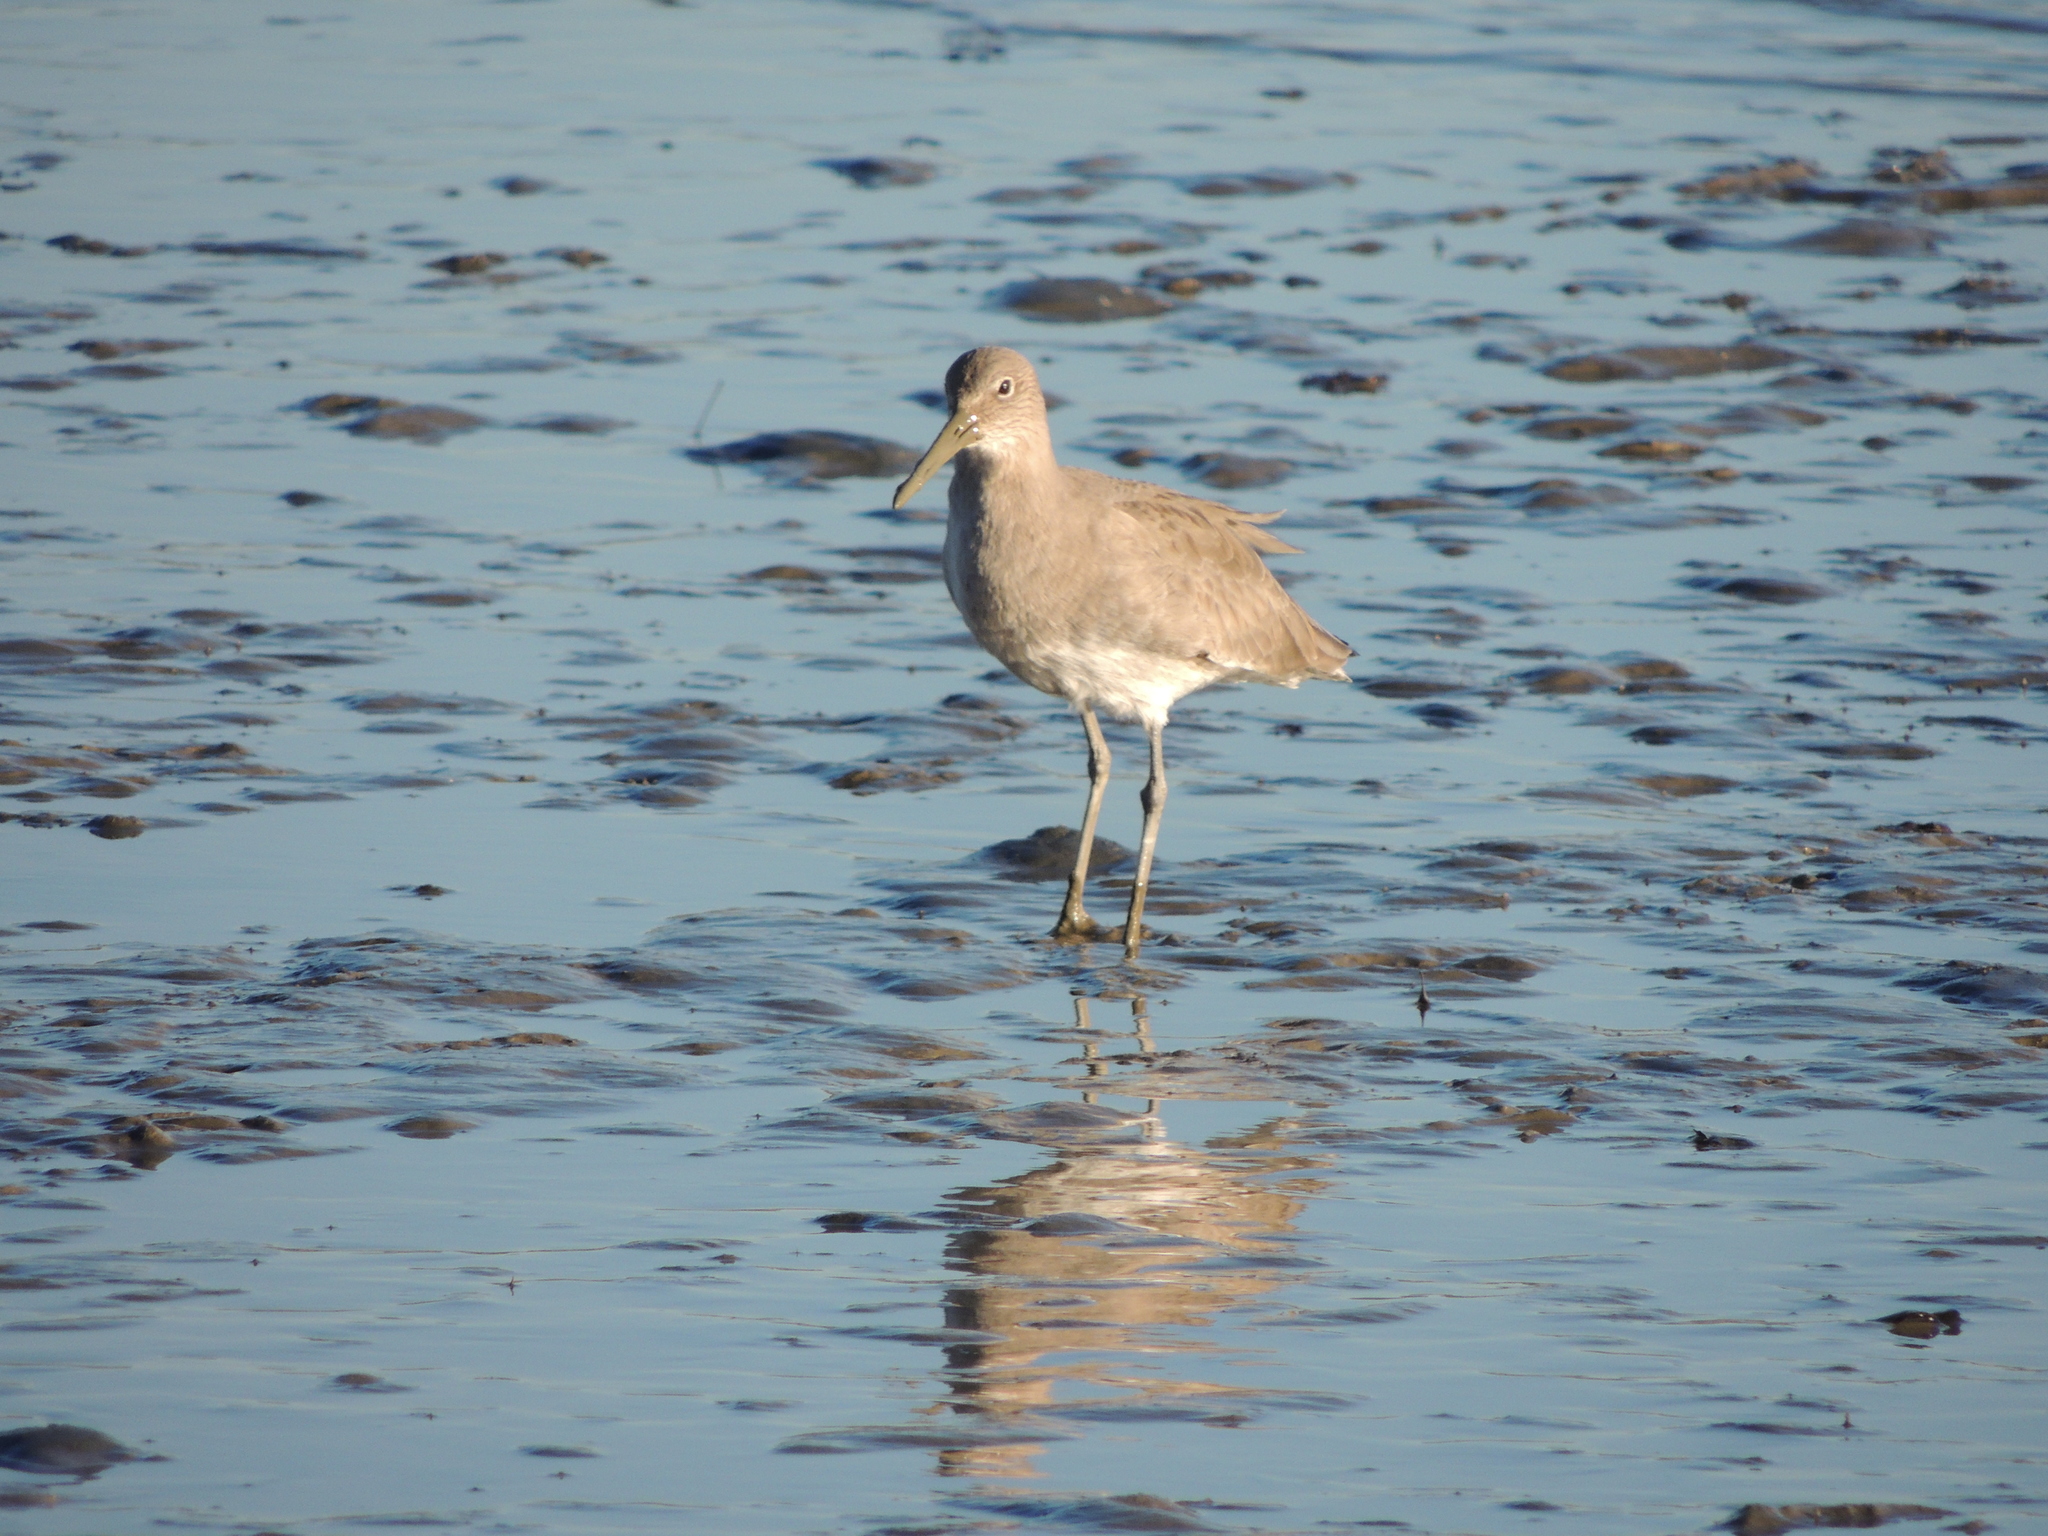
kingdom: Animalia
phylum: Chordata
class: Aves
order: Charadriiformes
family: Scolopacidae
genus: Tringa
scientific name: Tringa semipalmata
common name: Willet
